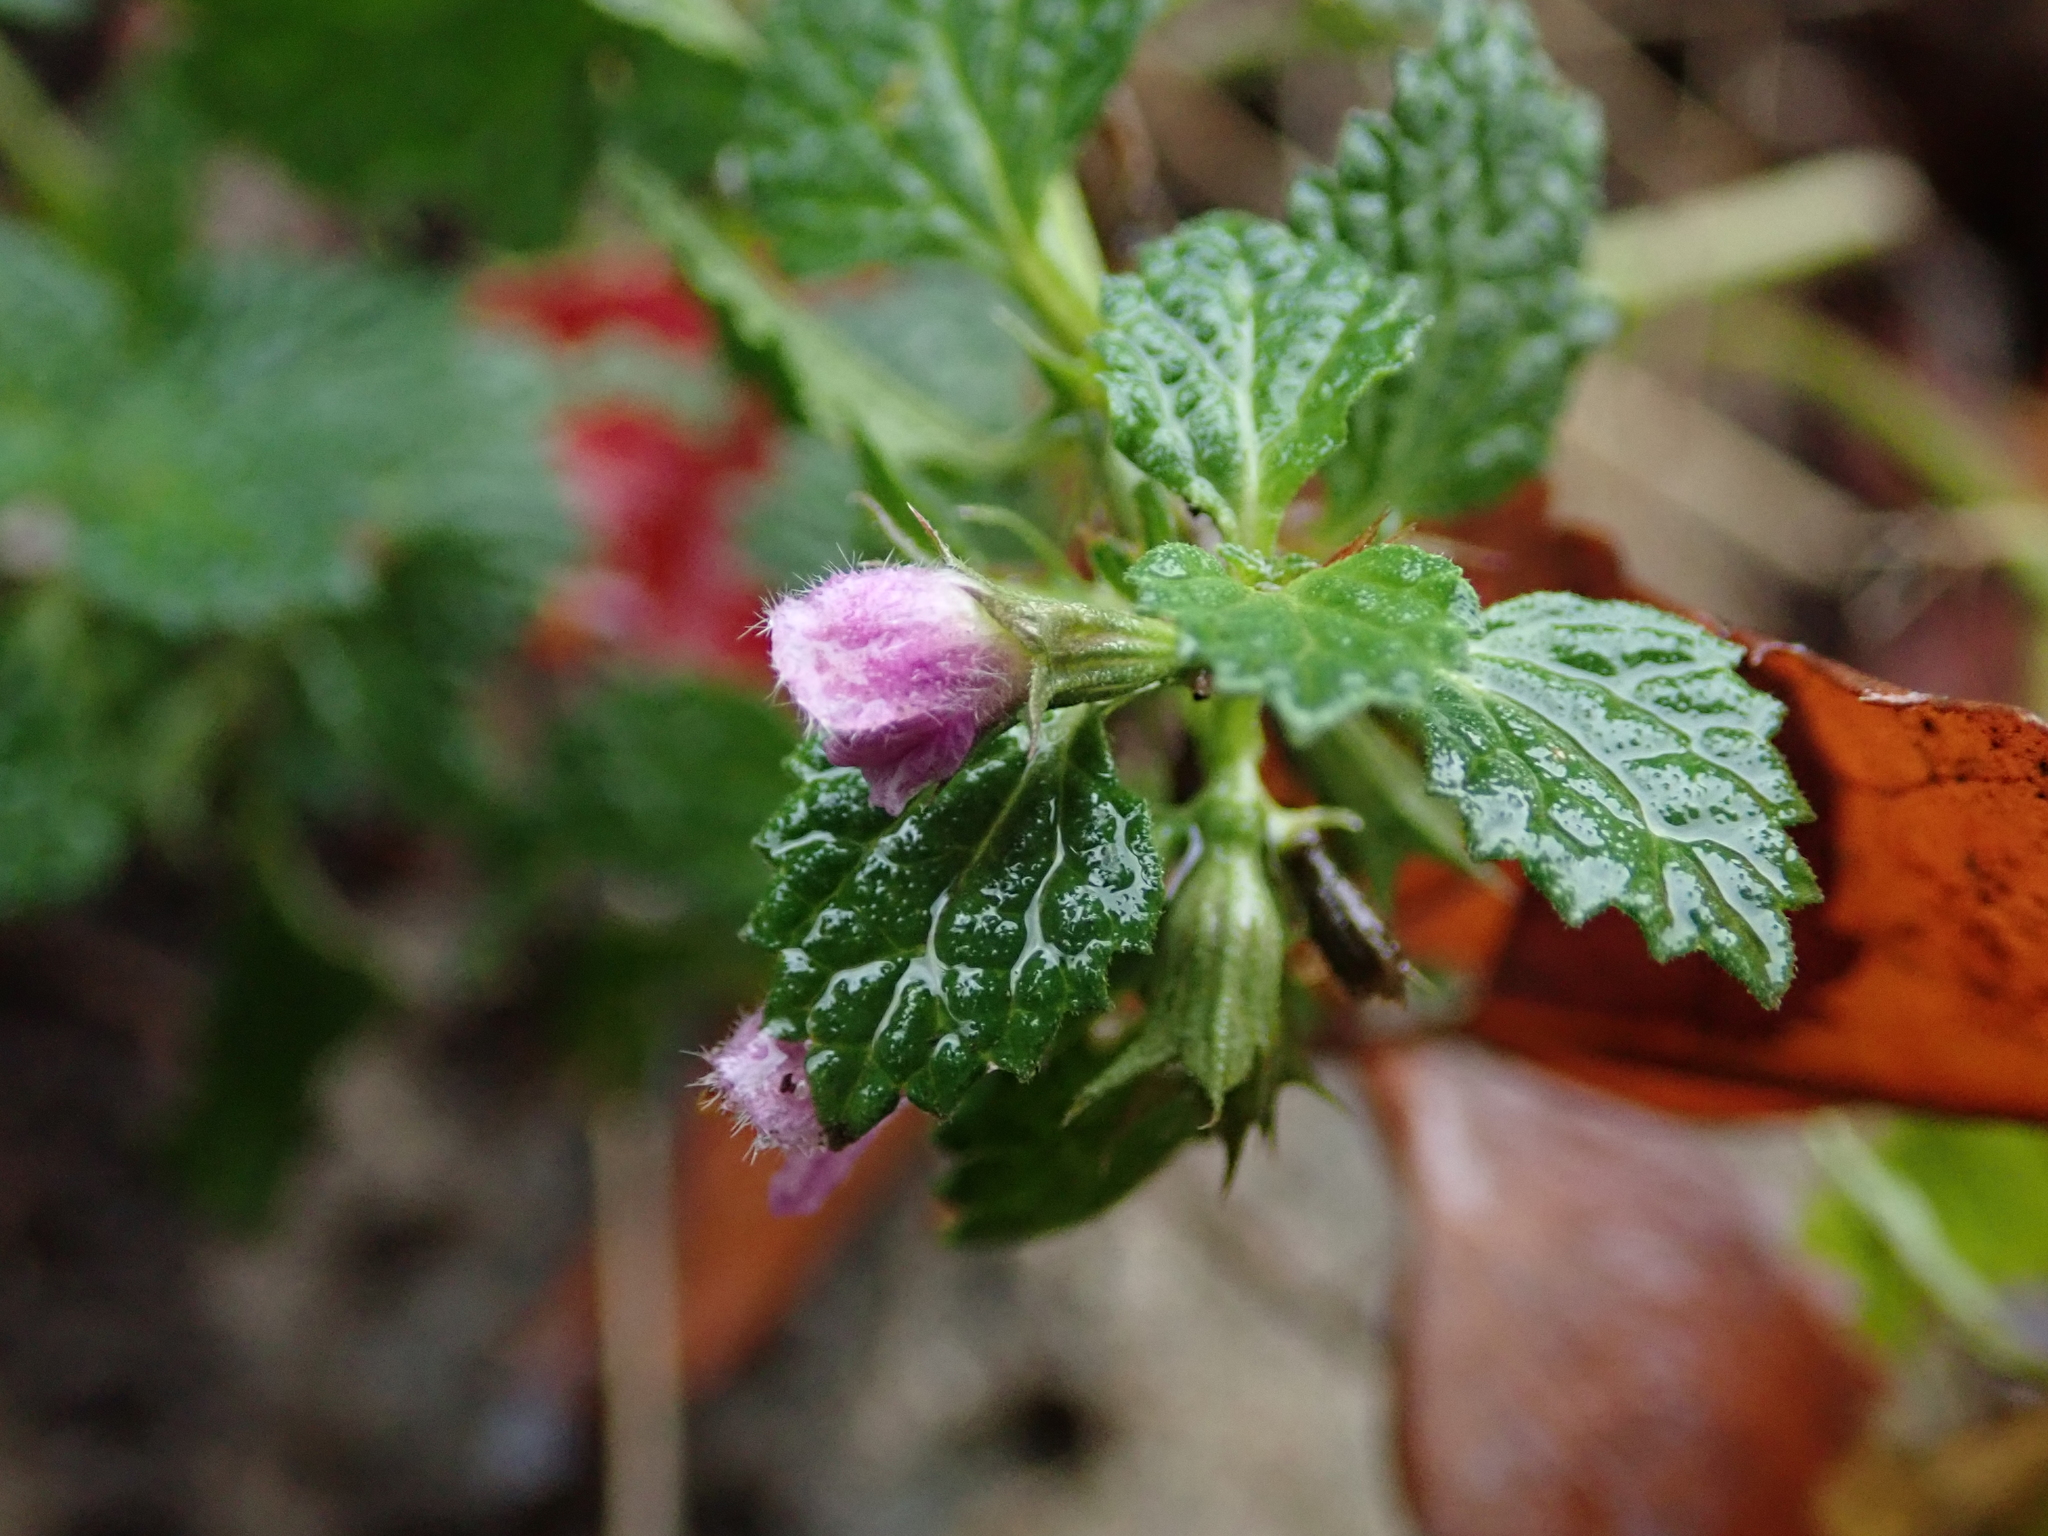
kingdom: Plantae
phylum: Tracheophyta
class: Magnoliopsida
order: Lamiales
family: Lamiaceae
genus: Ballota
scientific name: Ballota nigra
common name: Black horehound
